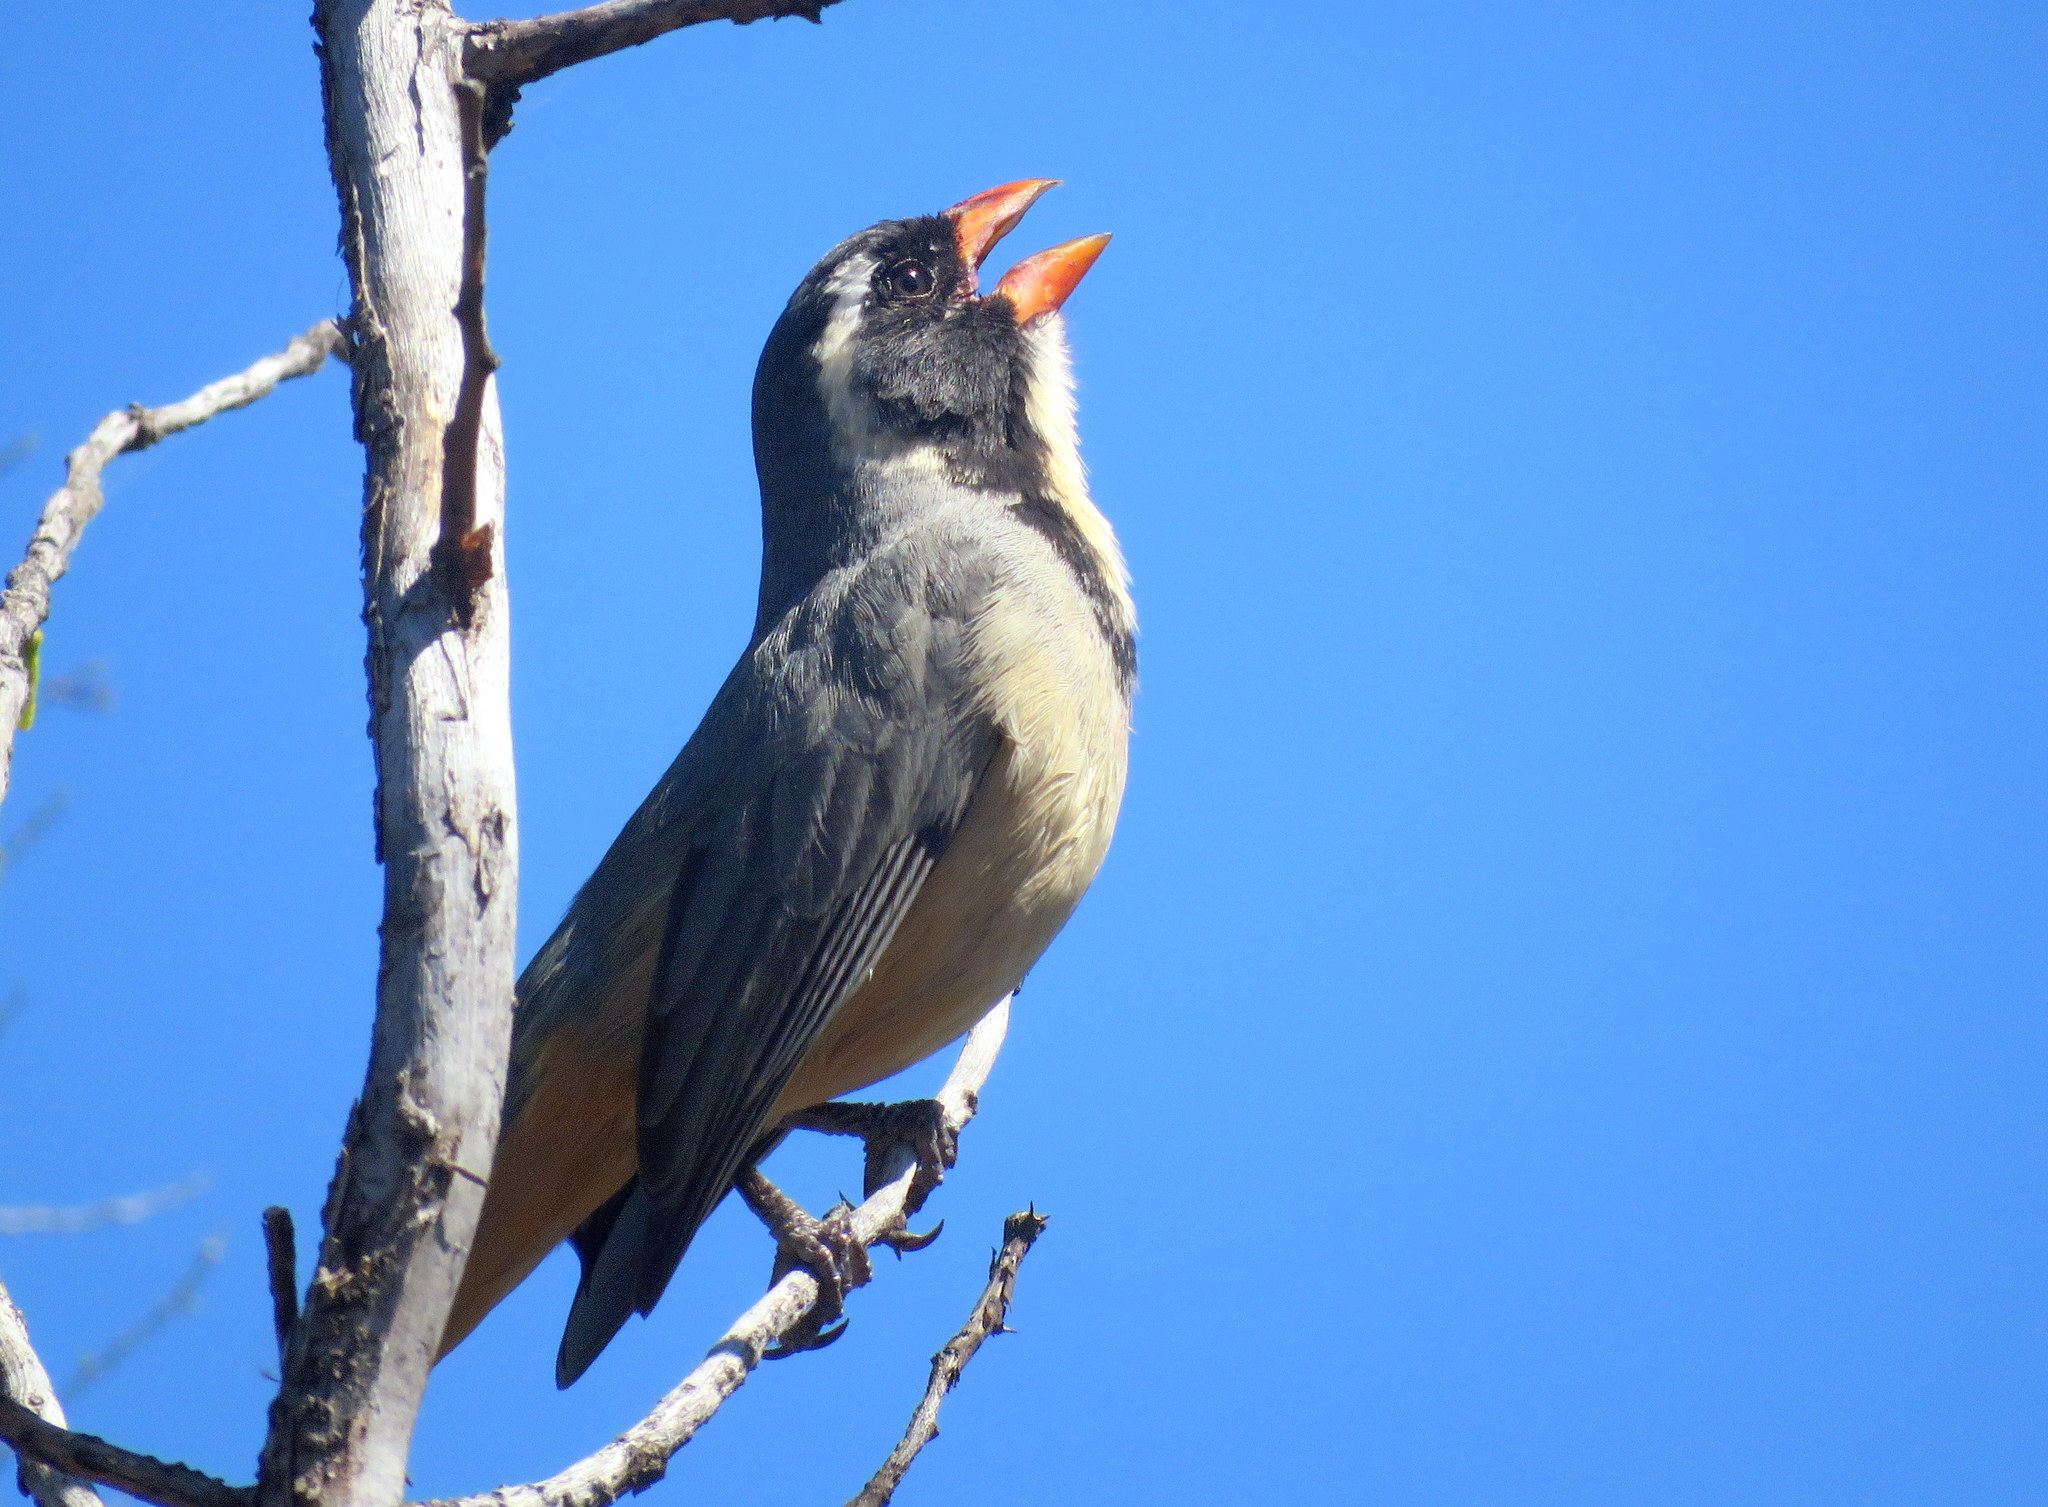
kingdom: Animalia
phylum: Chordata
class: Aves
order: Passeriformes
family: Thraupidae
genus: Saltator
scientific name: Saltator aurantiirostris
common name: Golden-billed saltator
